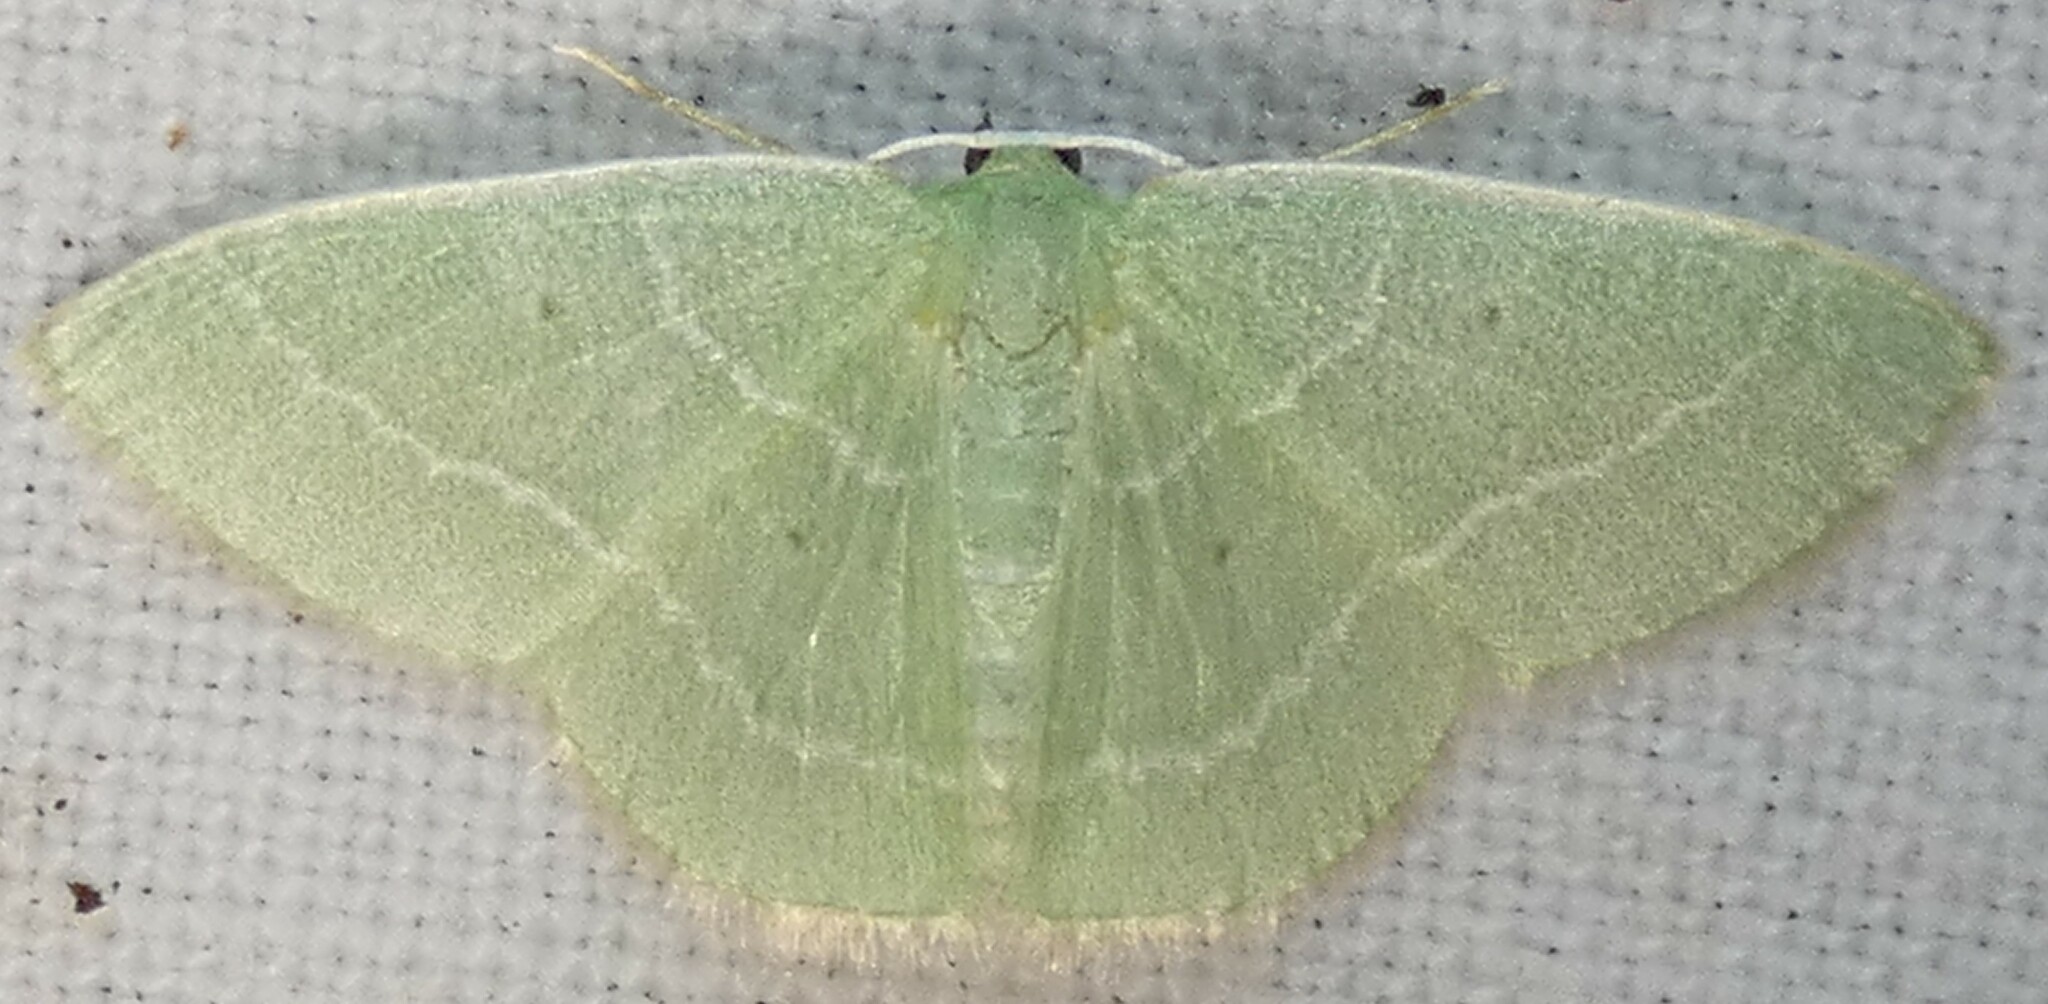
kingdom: Animalia
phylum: Arthropoda
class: Insecta
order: Lepidoptera
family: Geometridae
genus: Nemoria
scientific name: Nemoria elfa
